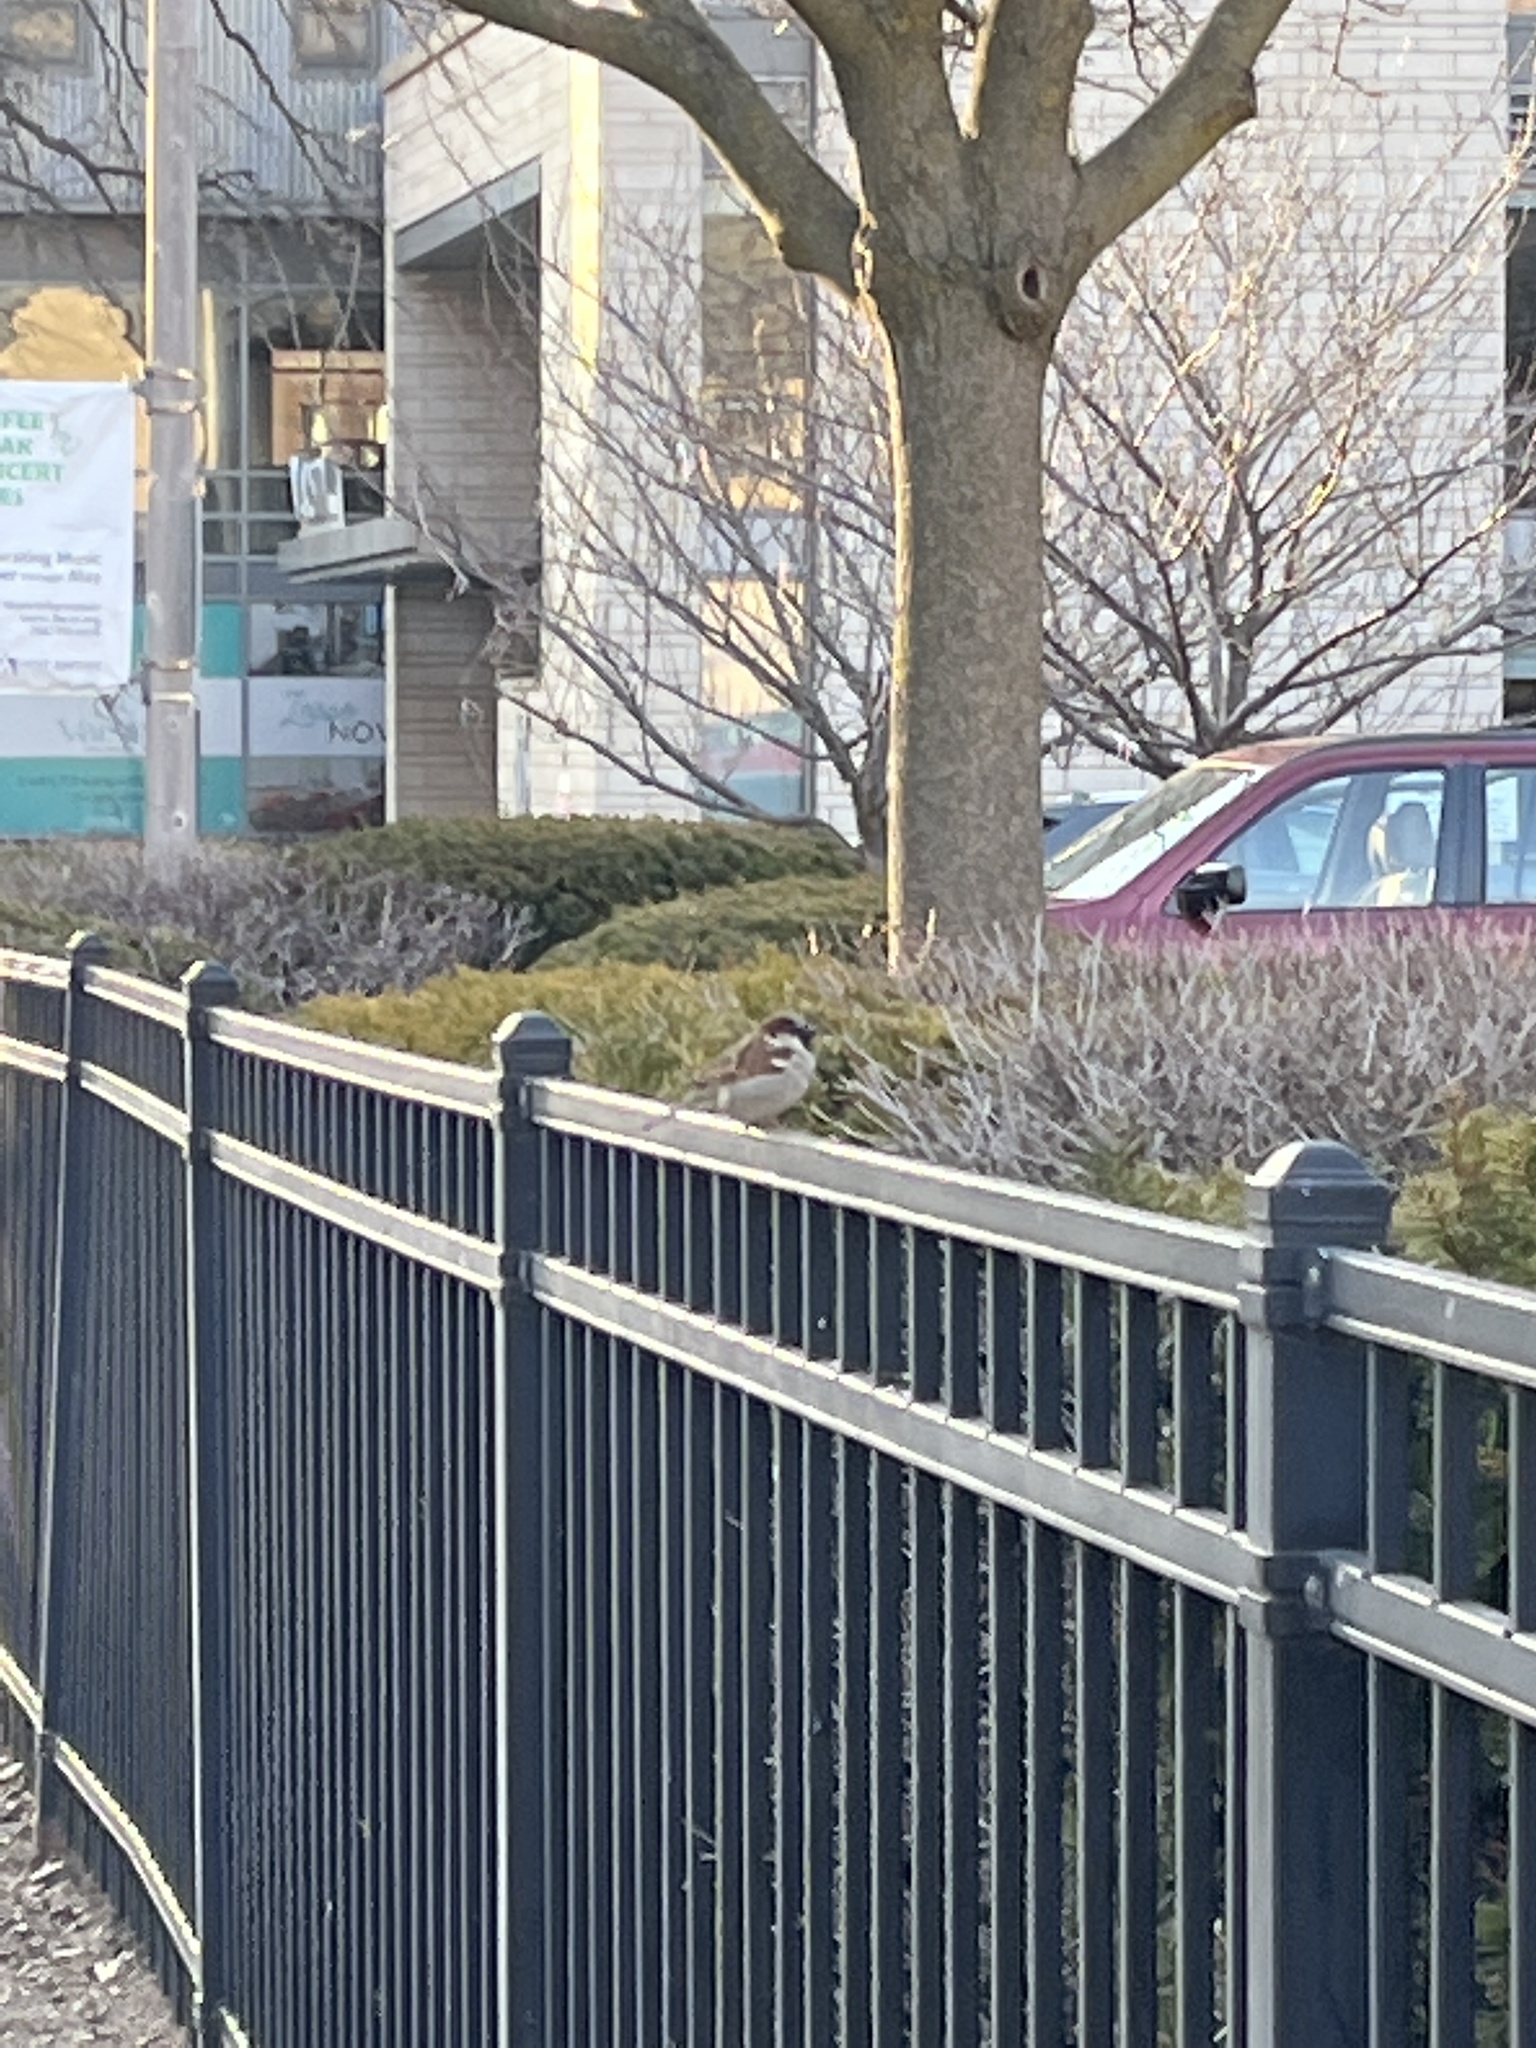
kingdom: Animalia
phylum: Chordata
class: Aves
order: Passeriformes
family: Passeridae
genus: Passer
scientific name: Passer domesticus
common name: House sparrow
